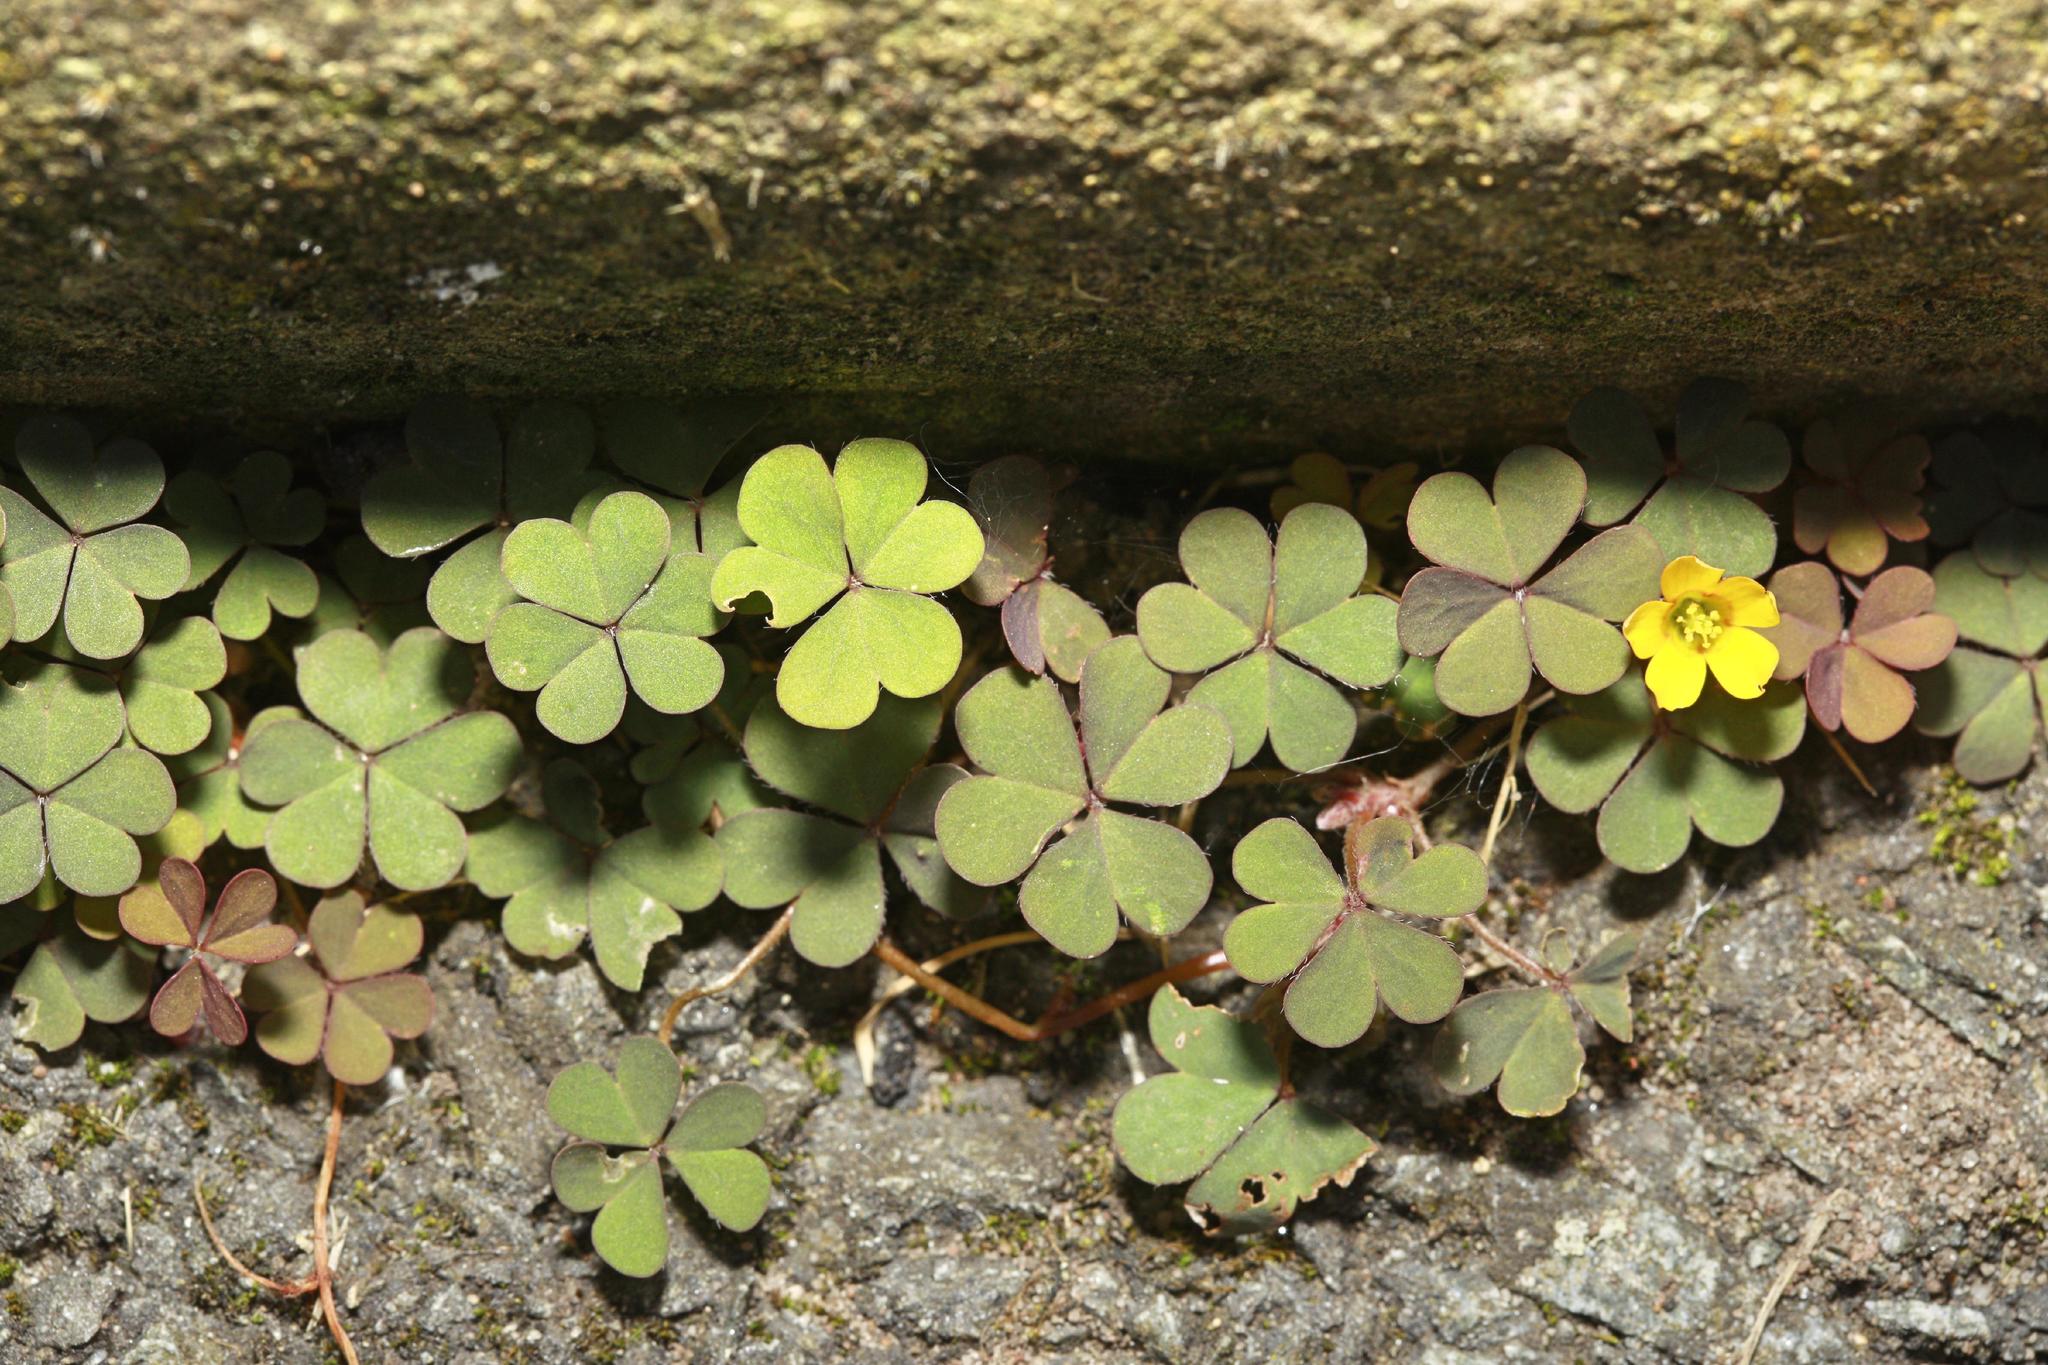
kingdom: Plantae
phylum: Tracheophyta
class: Magnoliopsida
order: Oxalidales
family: Oxalidaceae
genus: Oxalis
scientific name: Oxalis corniculata
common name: Procumbent yellow-sorrel
